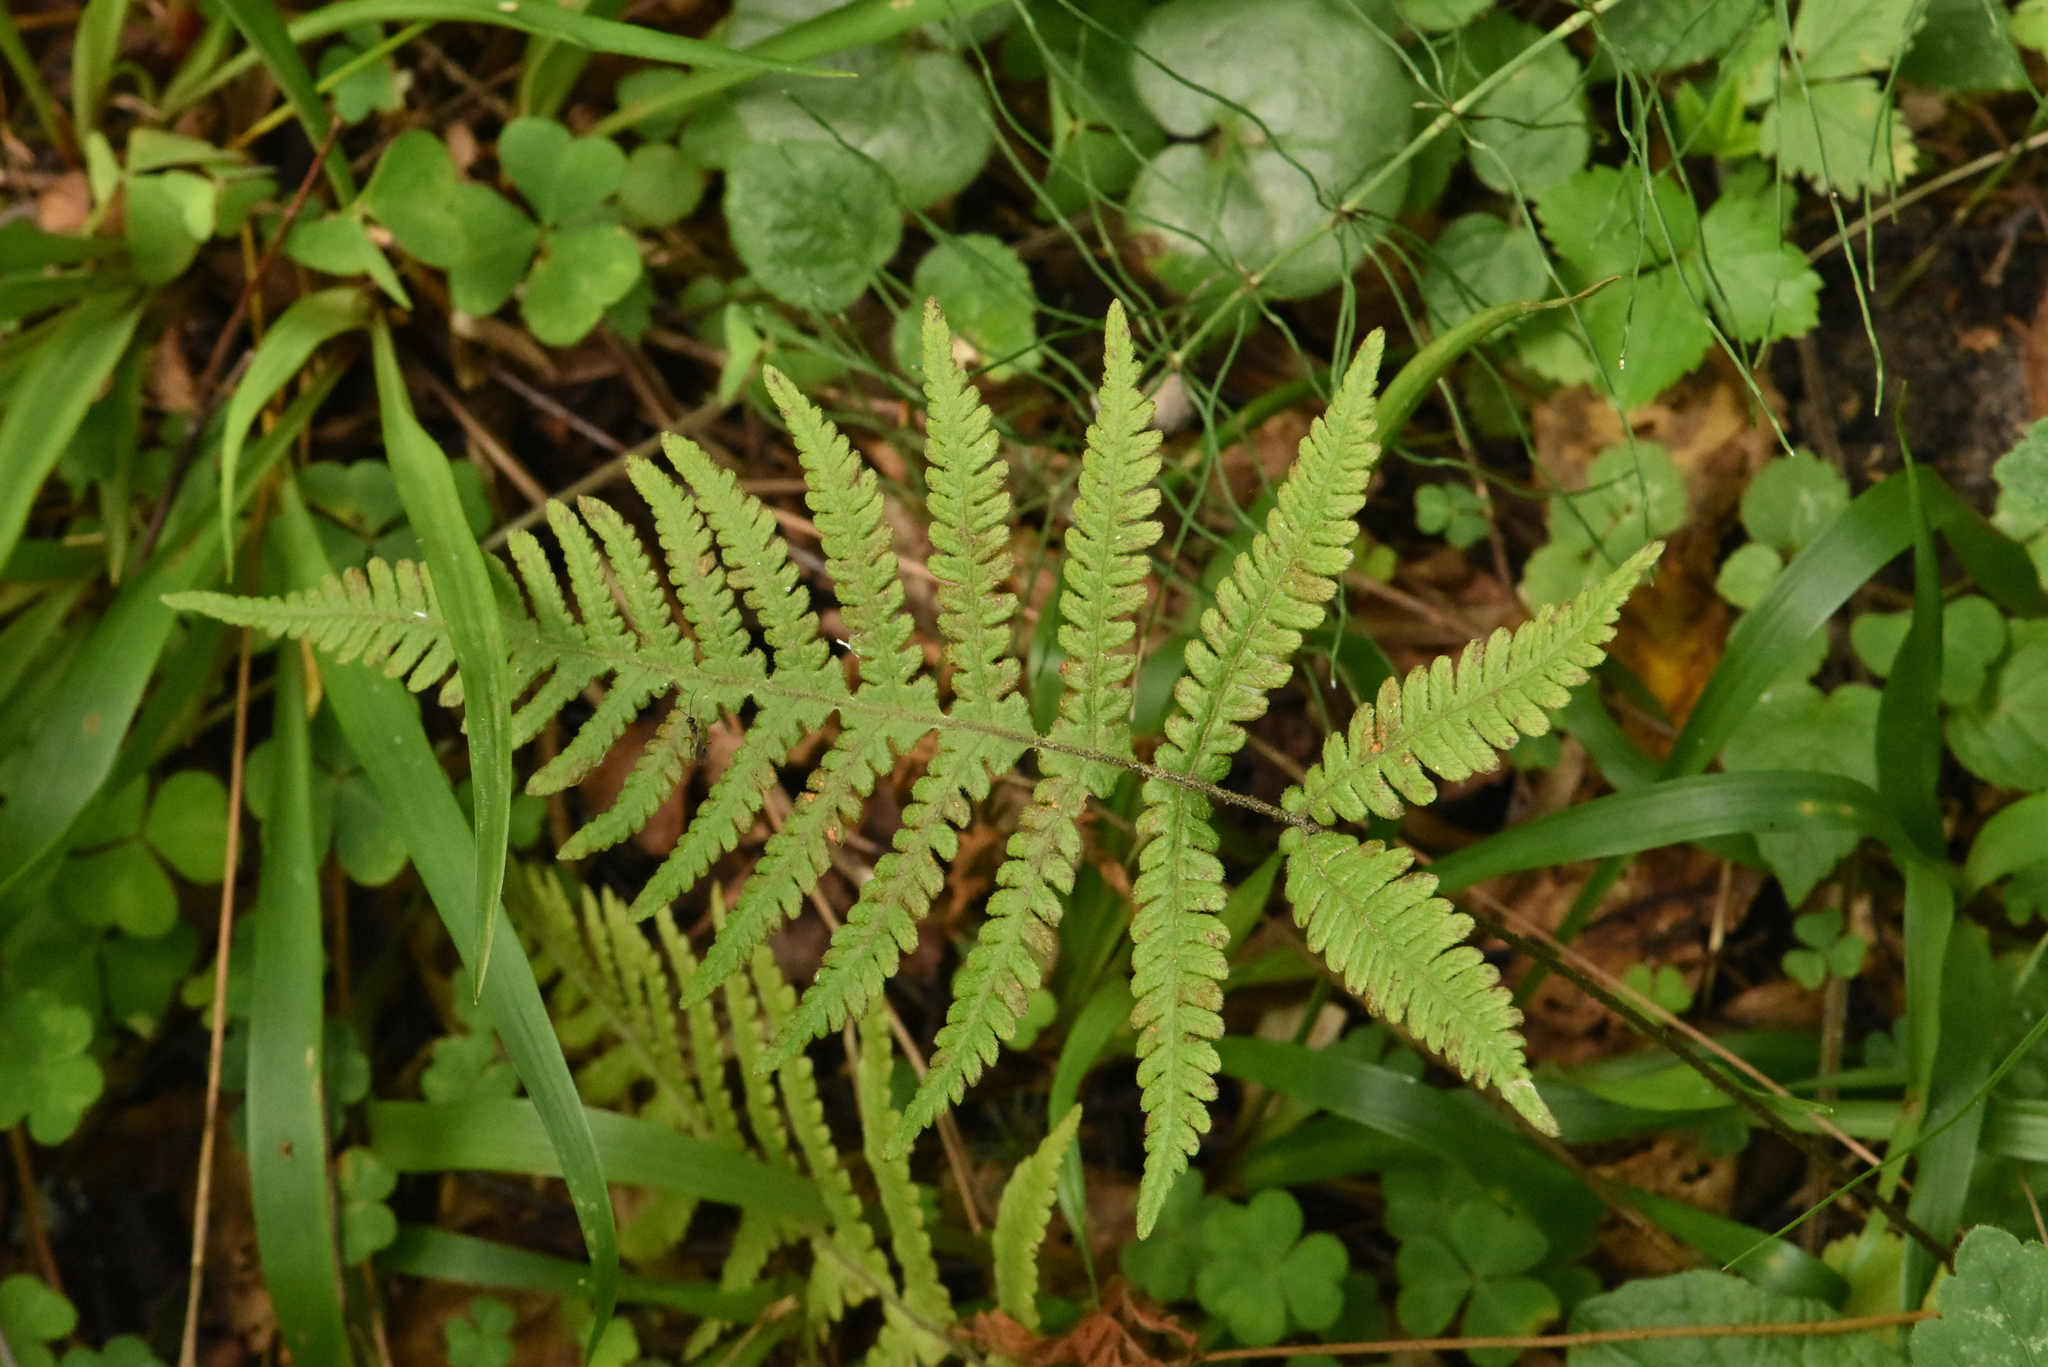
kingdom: Plantae
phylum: Tracheophyta
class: Polypodiopsida
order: Polypodiales
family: Thelypteridaceae
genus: Phegopteris
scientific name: Phegopteris connectilis
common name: Beech fern
